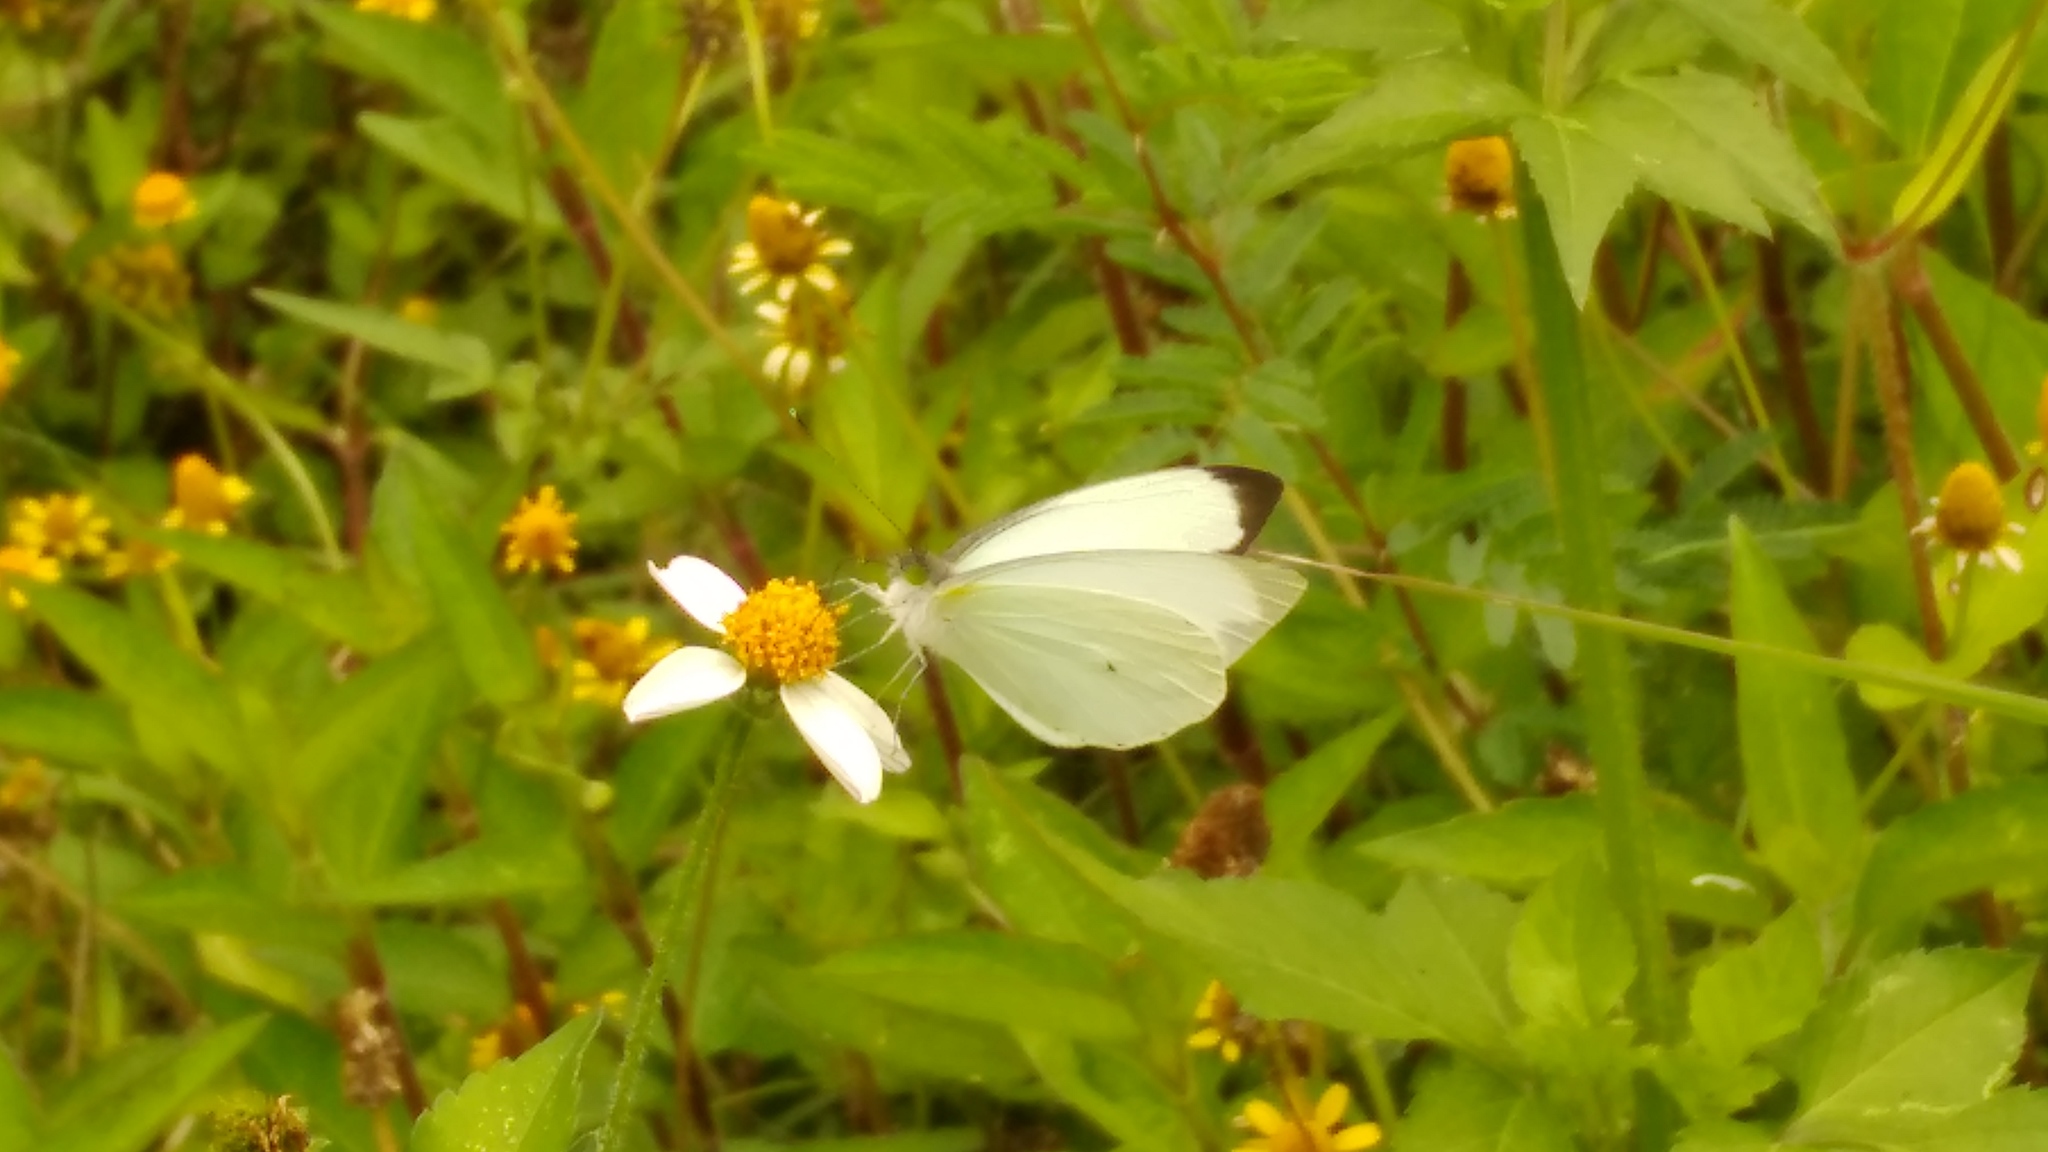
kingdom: Animalia
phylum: Arthropoda
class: Insecta
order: Lepidoptera
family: Pieridae
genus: Leptophobia
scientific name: Leptophobia aripa
